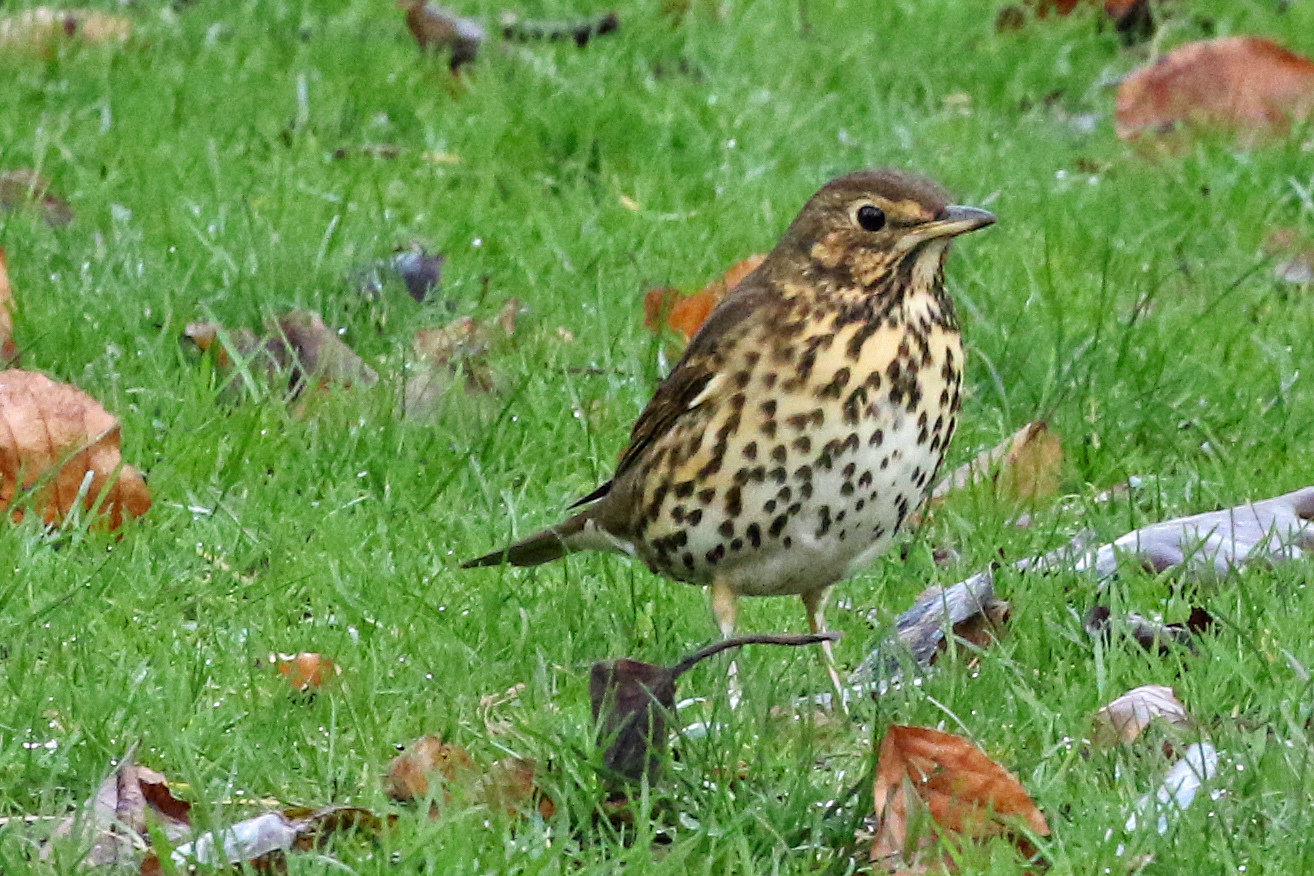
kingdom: Animalia
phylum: Chordata
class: Aves
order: Passeriformes
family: Turdidae
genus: Turdus
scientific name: Turdus philomelos
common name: Song thrush
